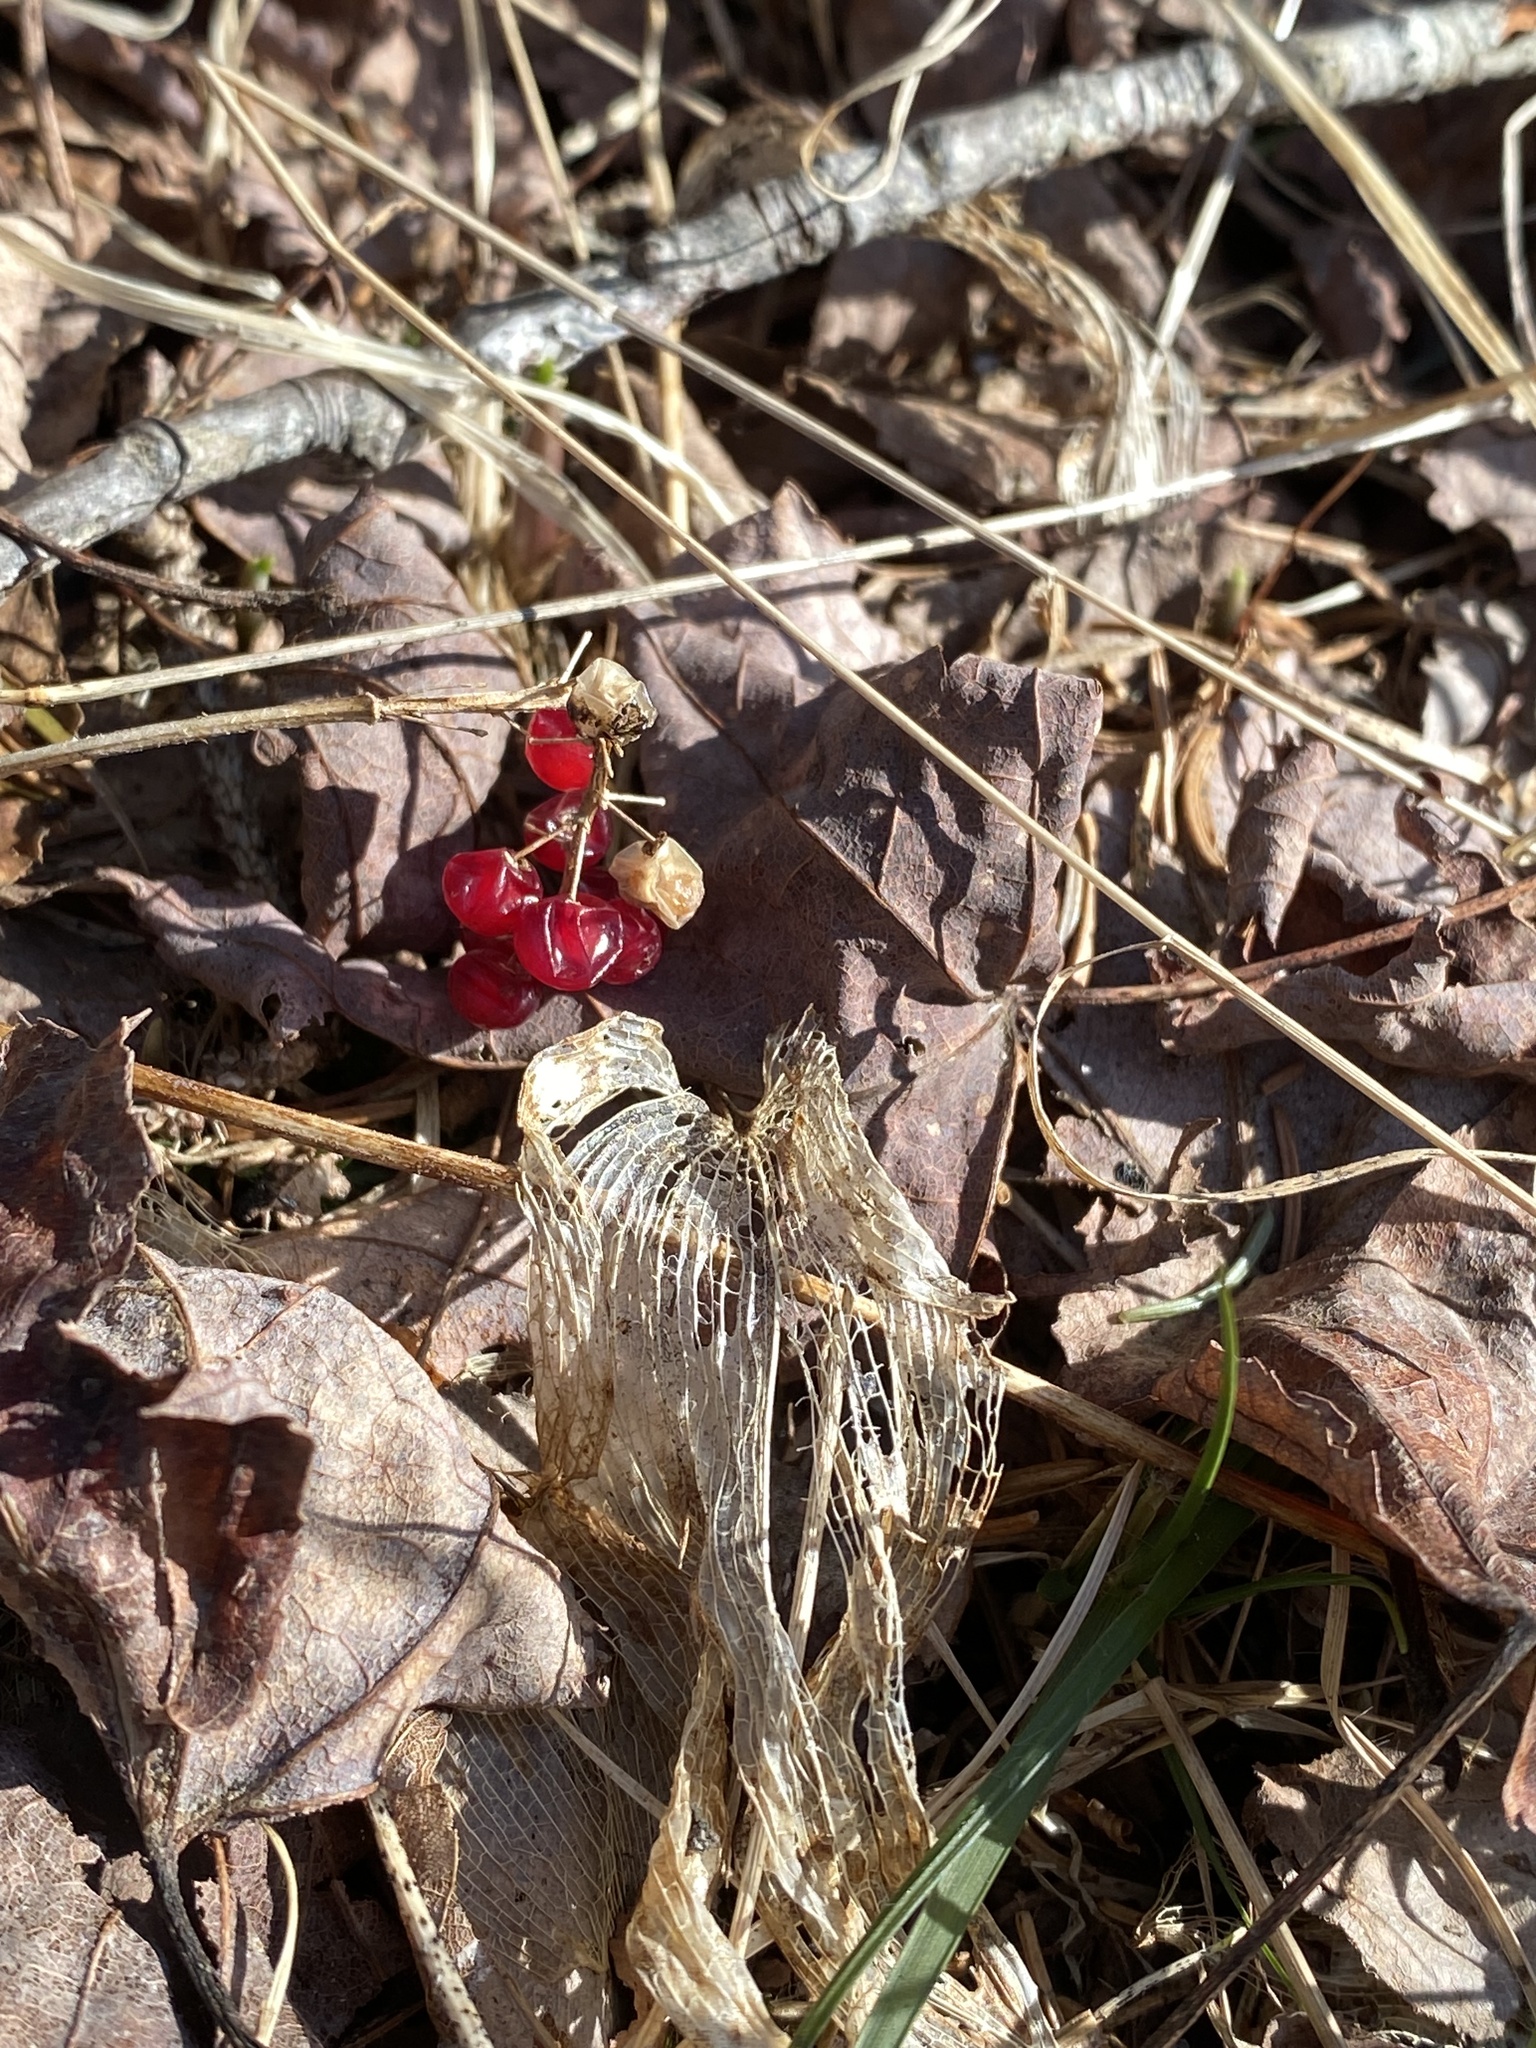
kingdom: Plantae
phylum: Tracheophyta
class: Liliopsida
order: Asparagales
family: Asparagaceae
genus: Maianthemum
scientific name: Maianthemum canadense
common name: False lily-of-the-valley
